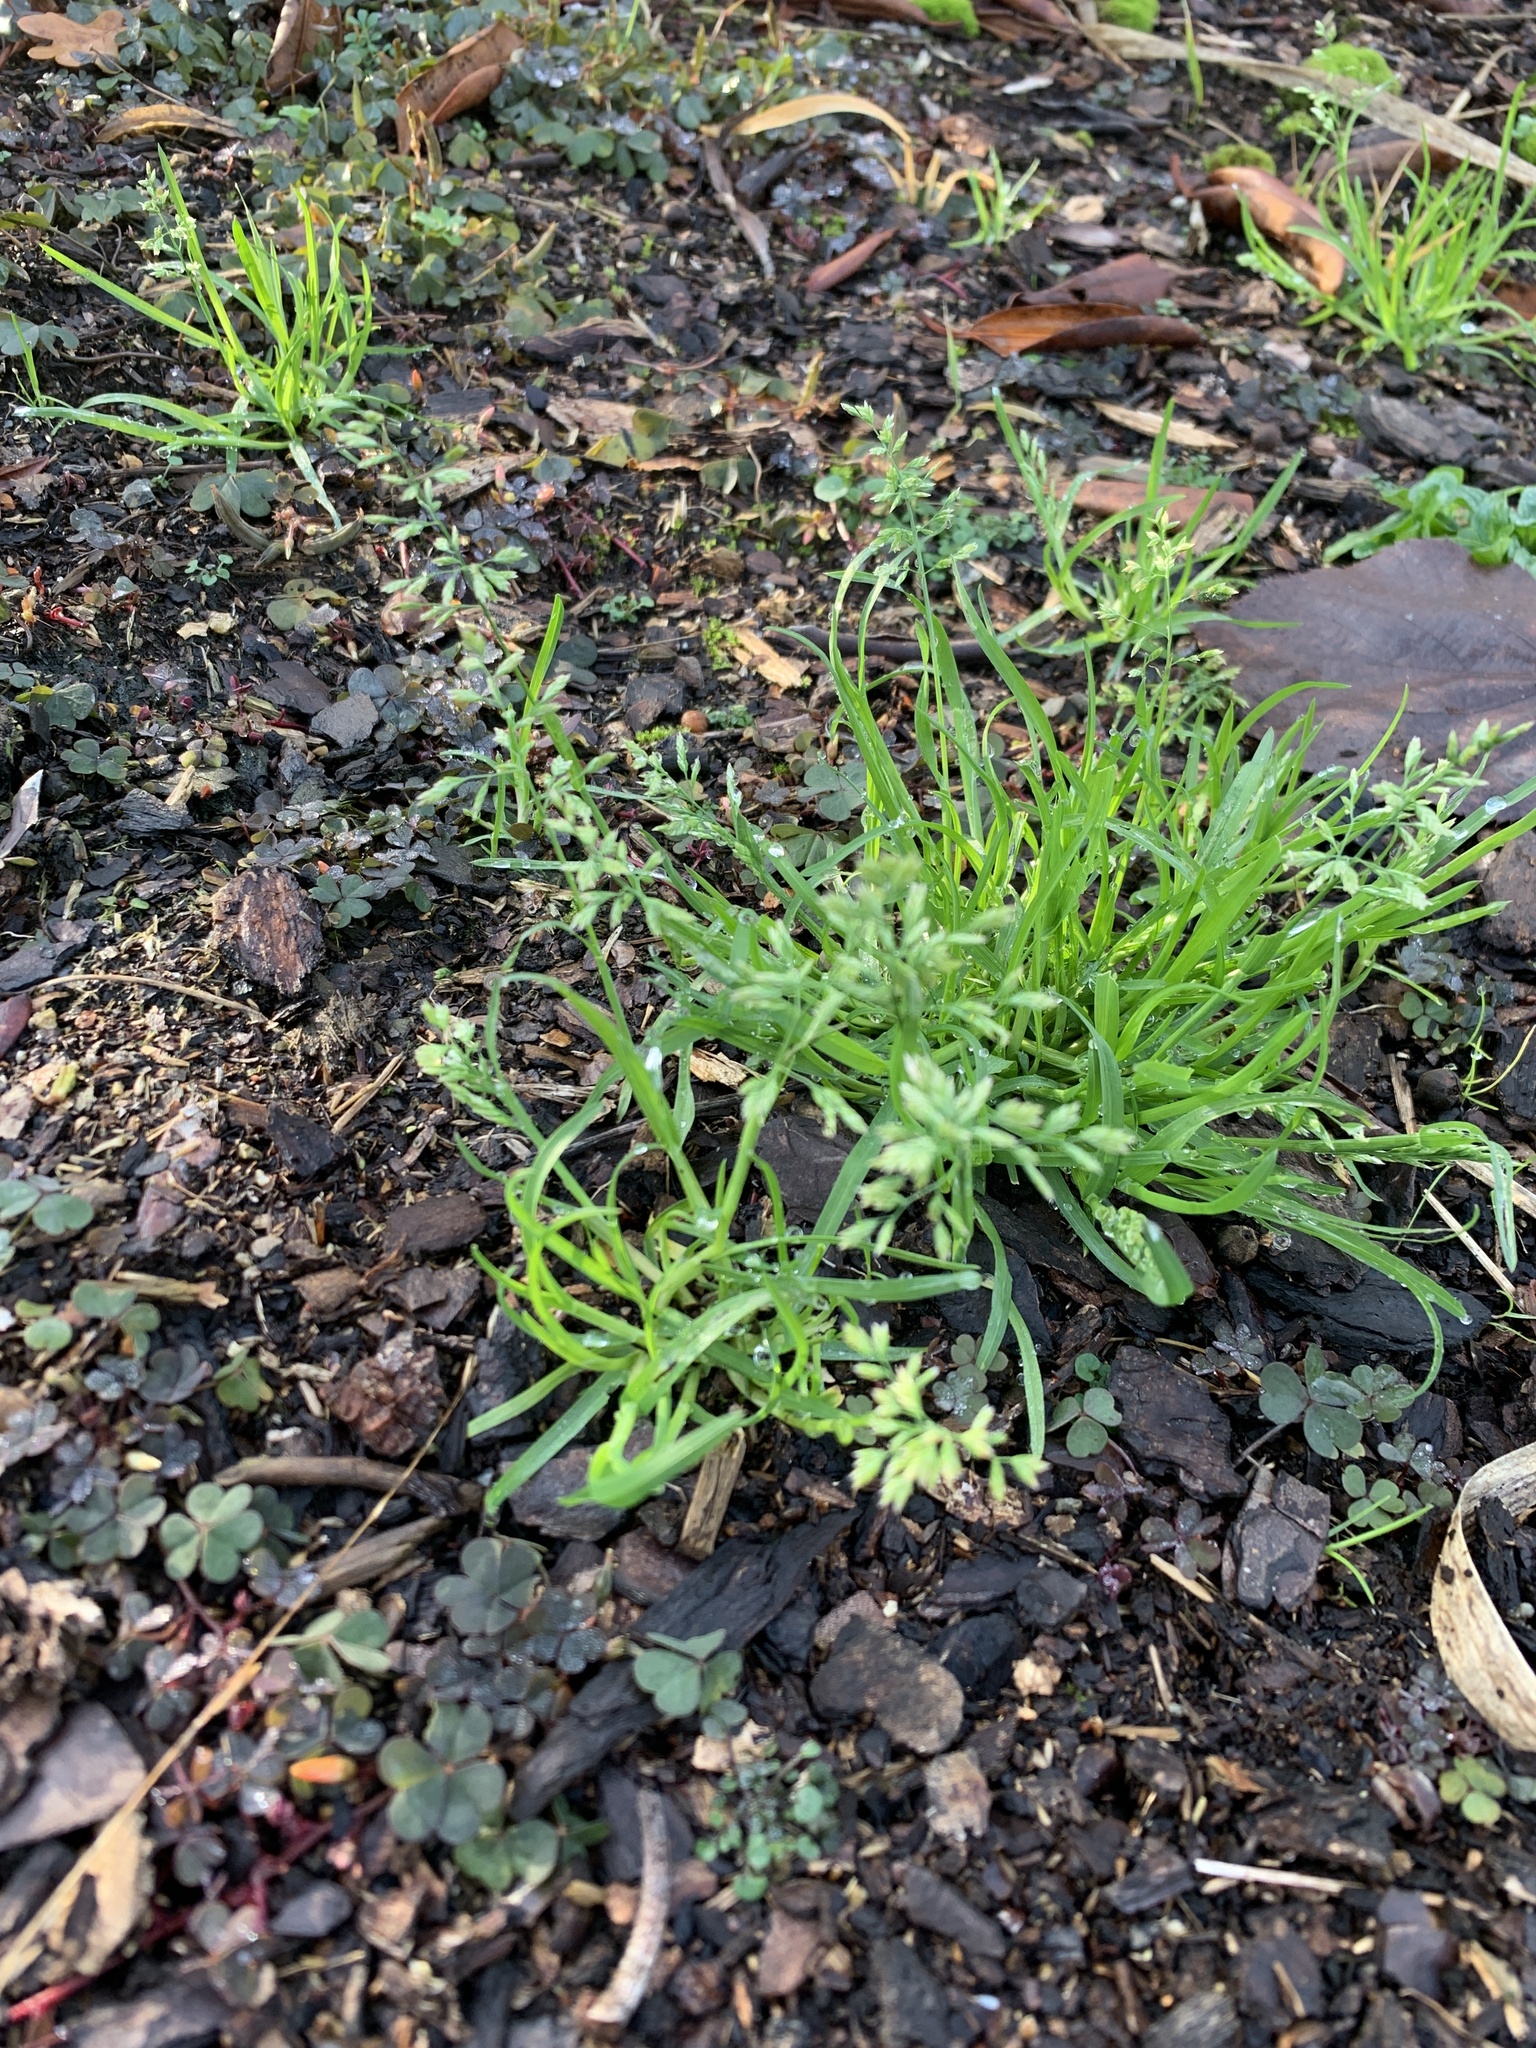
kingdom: Plantae
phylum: Tracheophyta
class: Liliopsida
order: Poales
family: Poaceae
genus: Poa
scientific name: Poa annua
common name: Annual bluegrass
